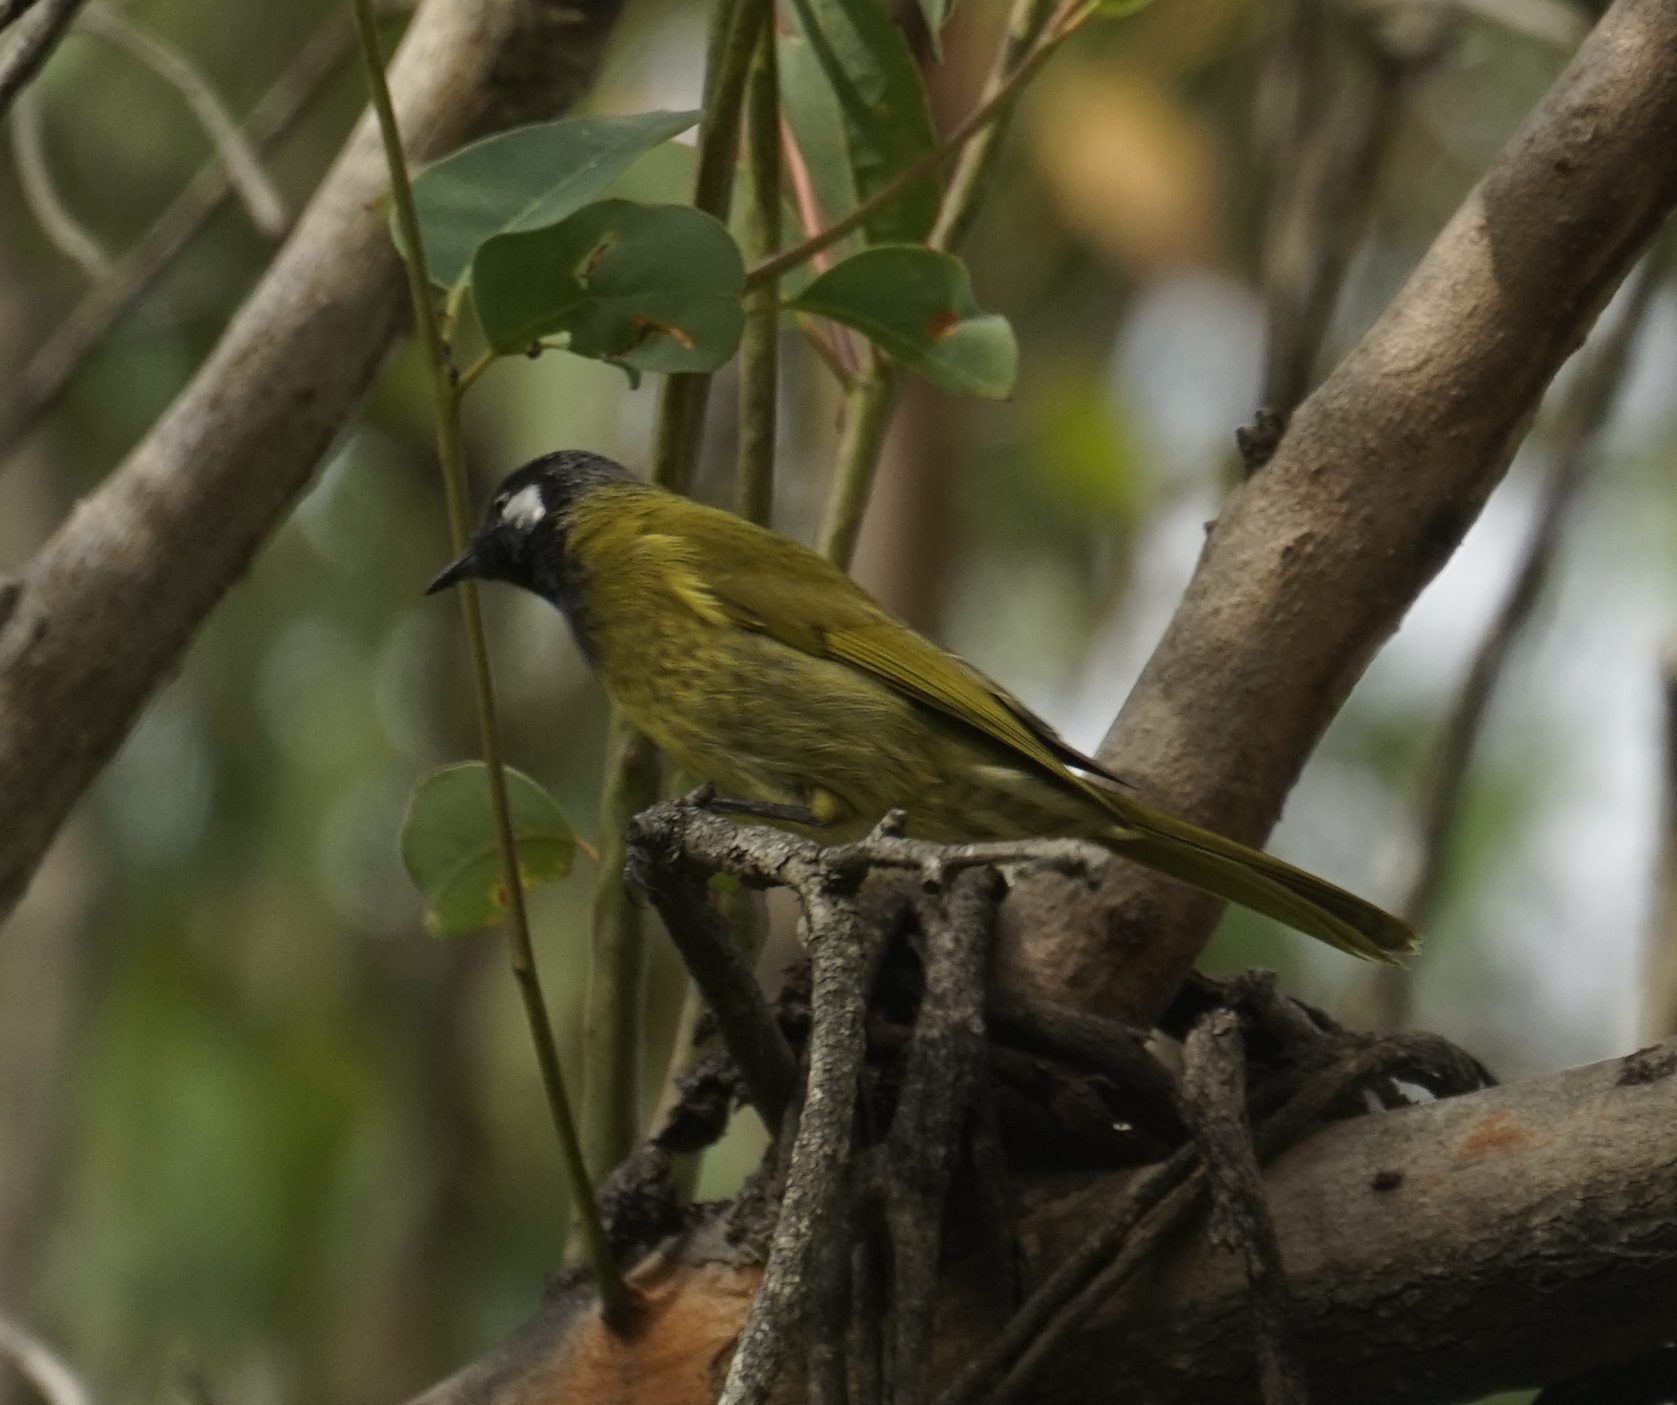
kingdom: Animalia
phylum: Chordata
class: Aves
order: Passeriformes
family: Meliphagidae
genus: Nesoptilotis
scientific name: Nesoptilotis leucotis
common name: White-eared honeyeater
